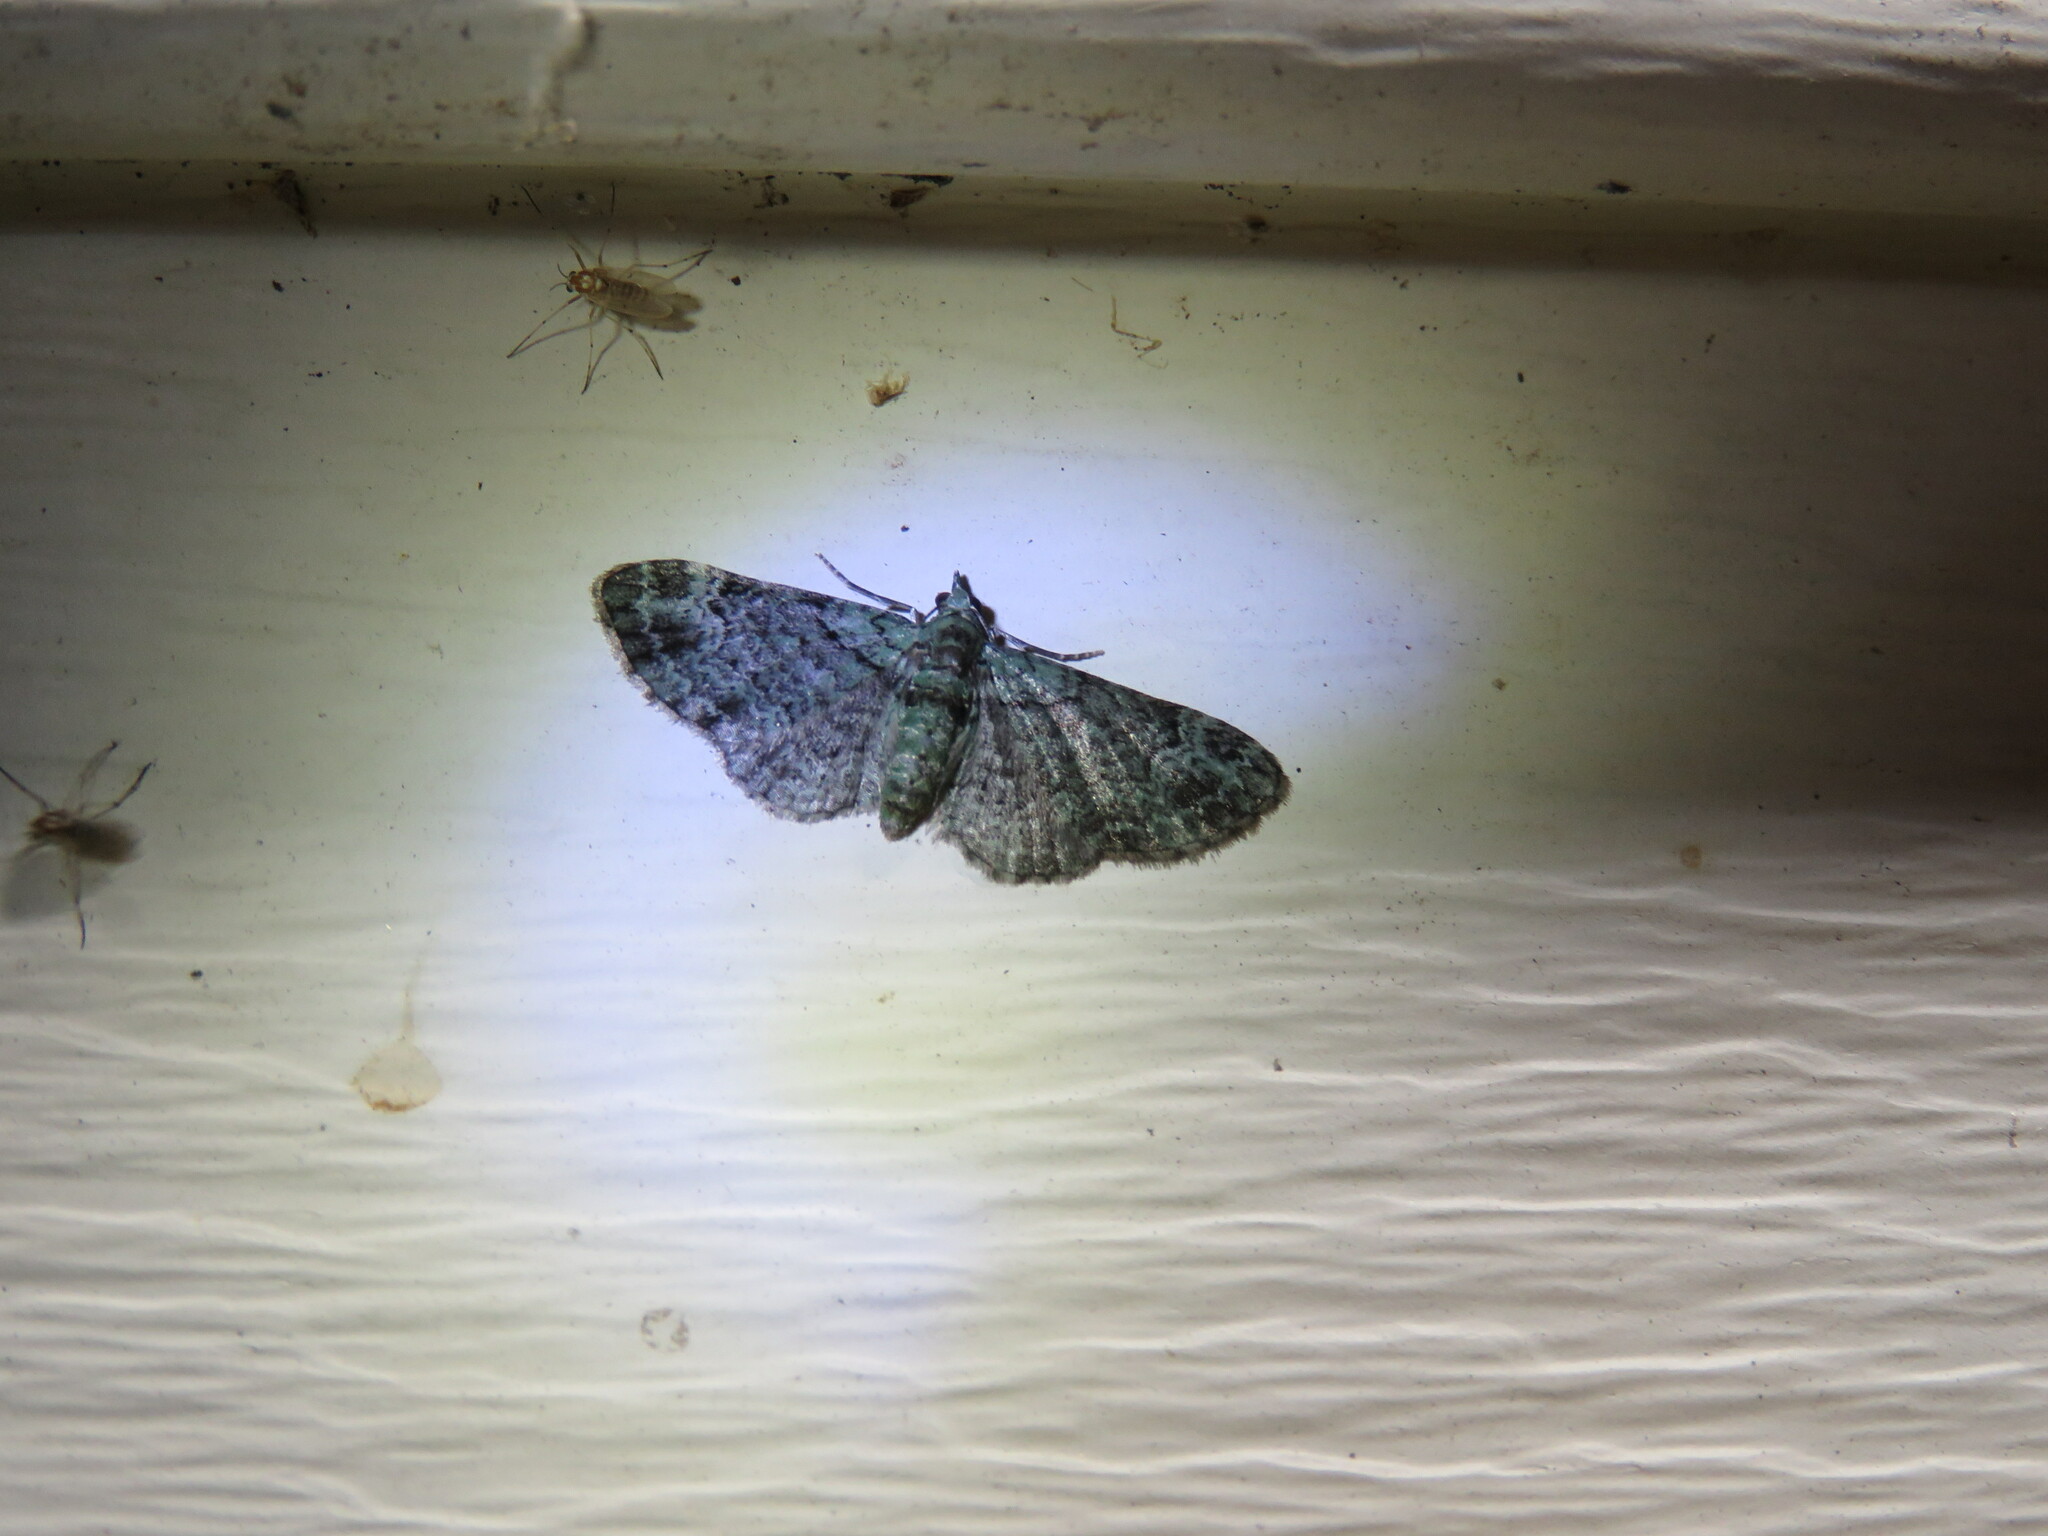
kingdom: Animalia
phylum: Arthropoda
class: Insecta
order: Lepidoptera
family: Geometridae
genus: Pasiphila
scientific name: Pasiphila rectangulata
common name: Green pug
